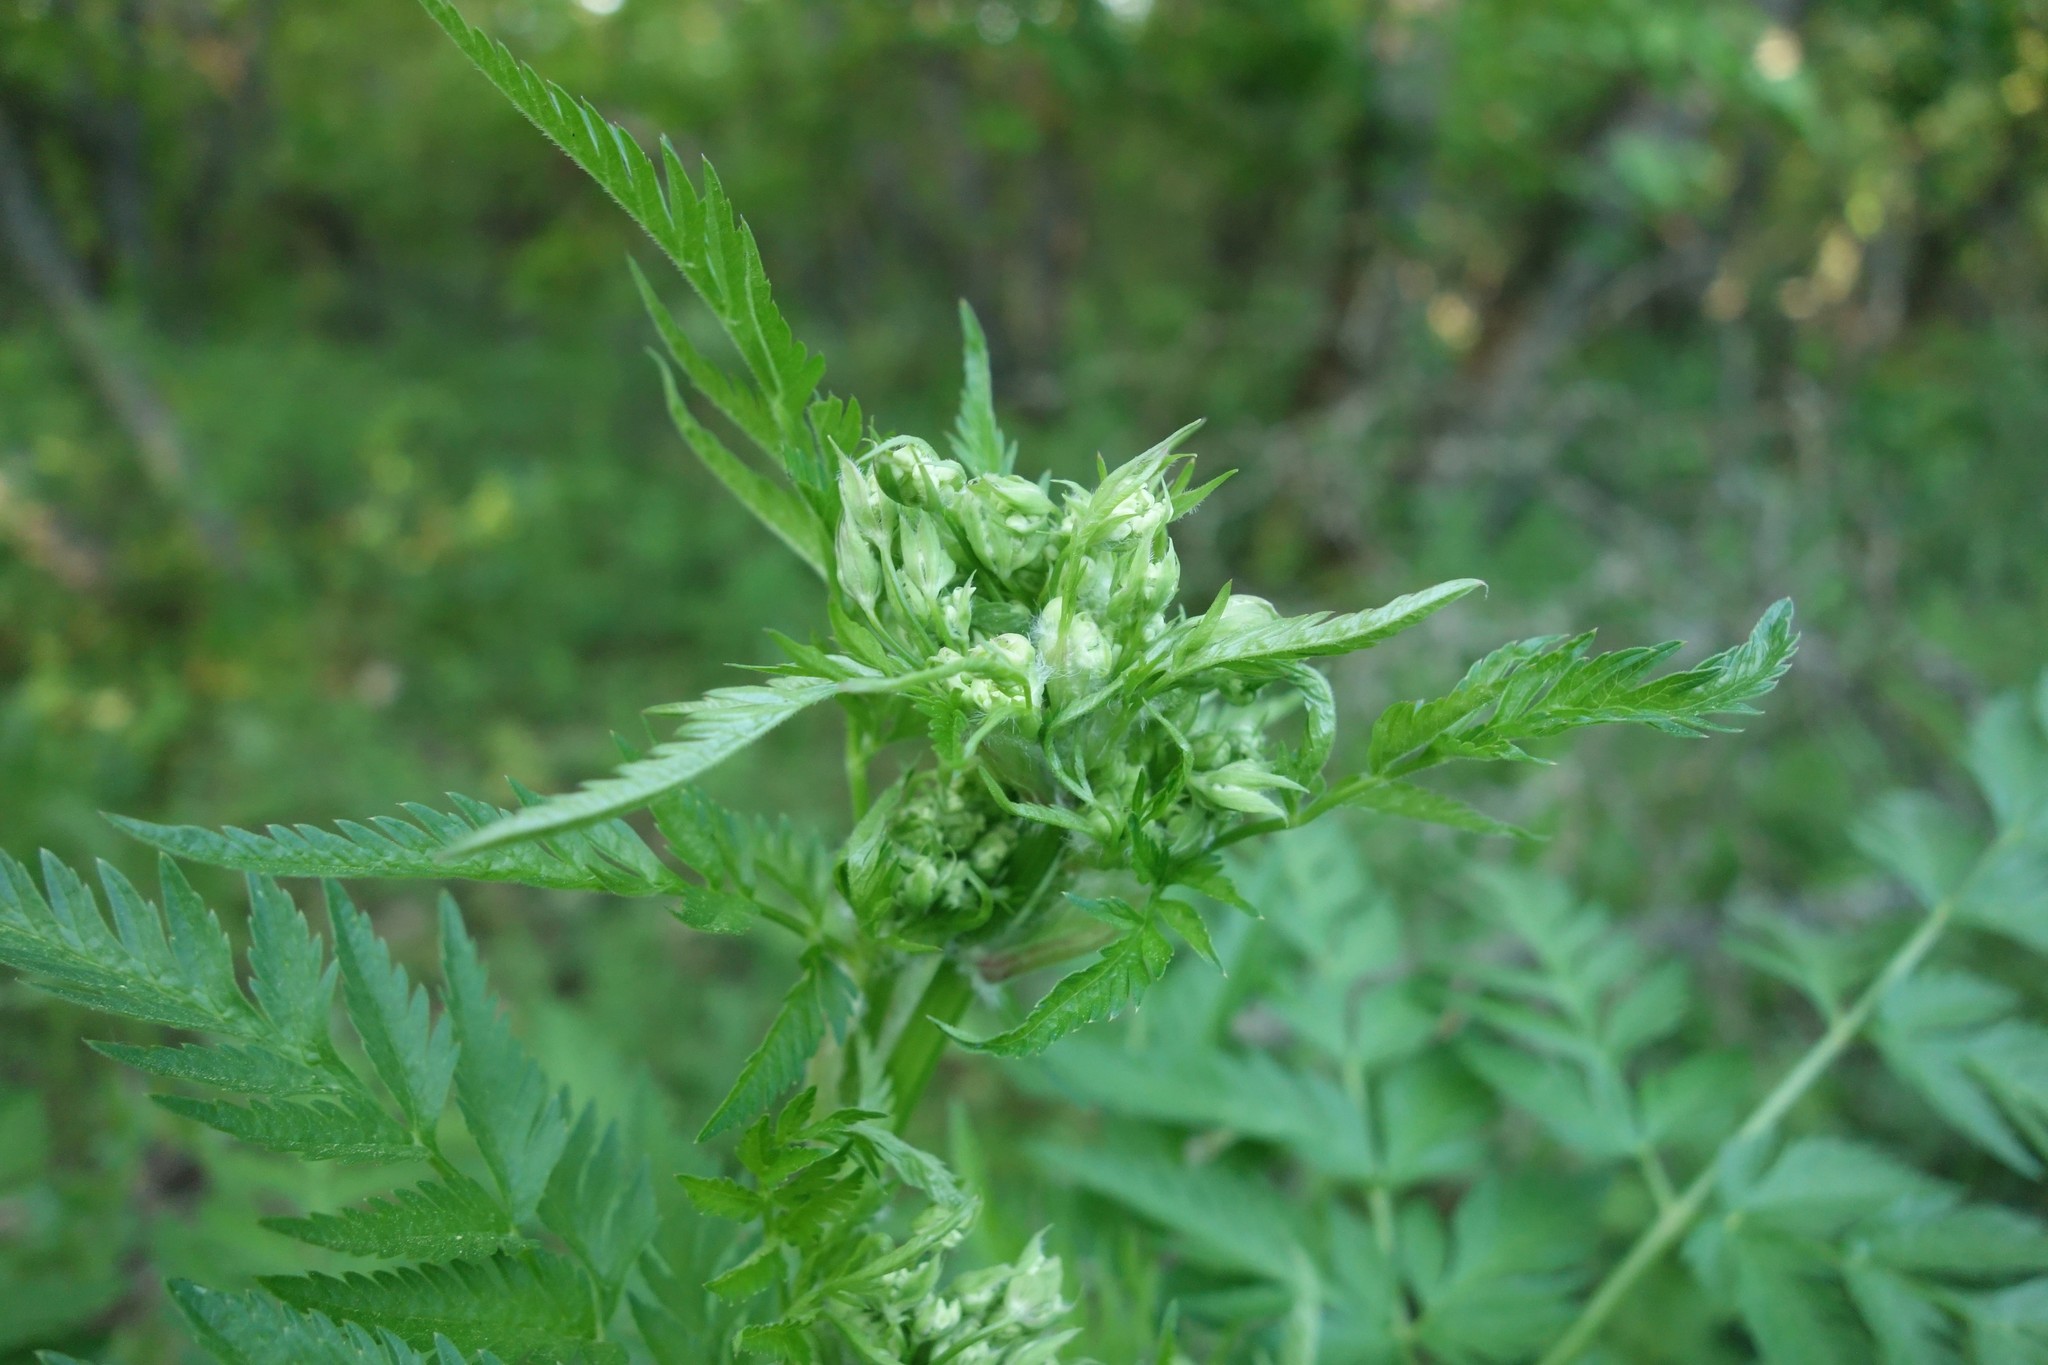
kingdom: Plantae
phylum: Tracheophyta
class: Magnoliopsida
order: Apiales
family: Apiaceae
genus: Anthriscus
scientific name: Anthriscus sylvestris
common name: Cow parsley
